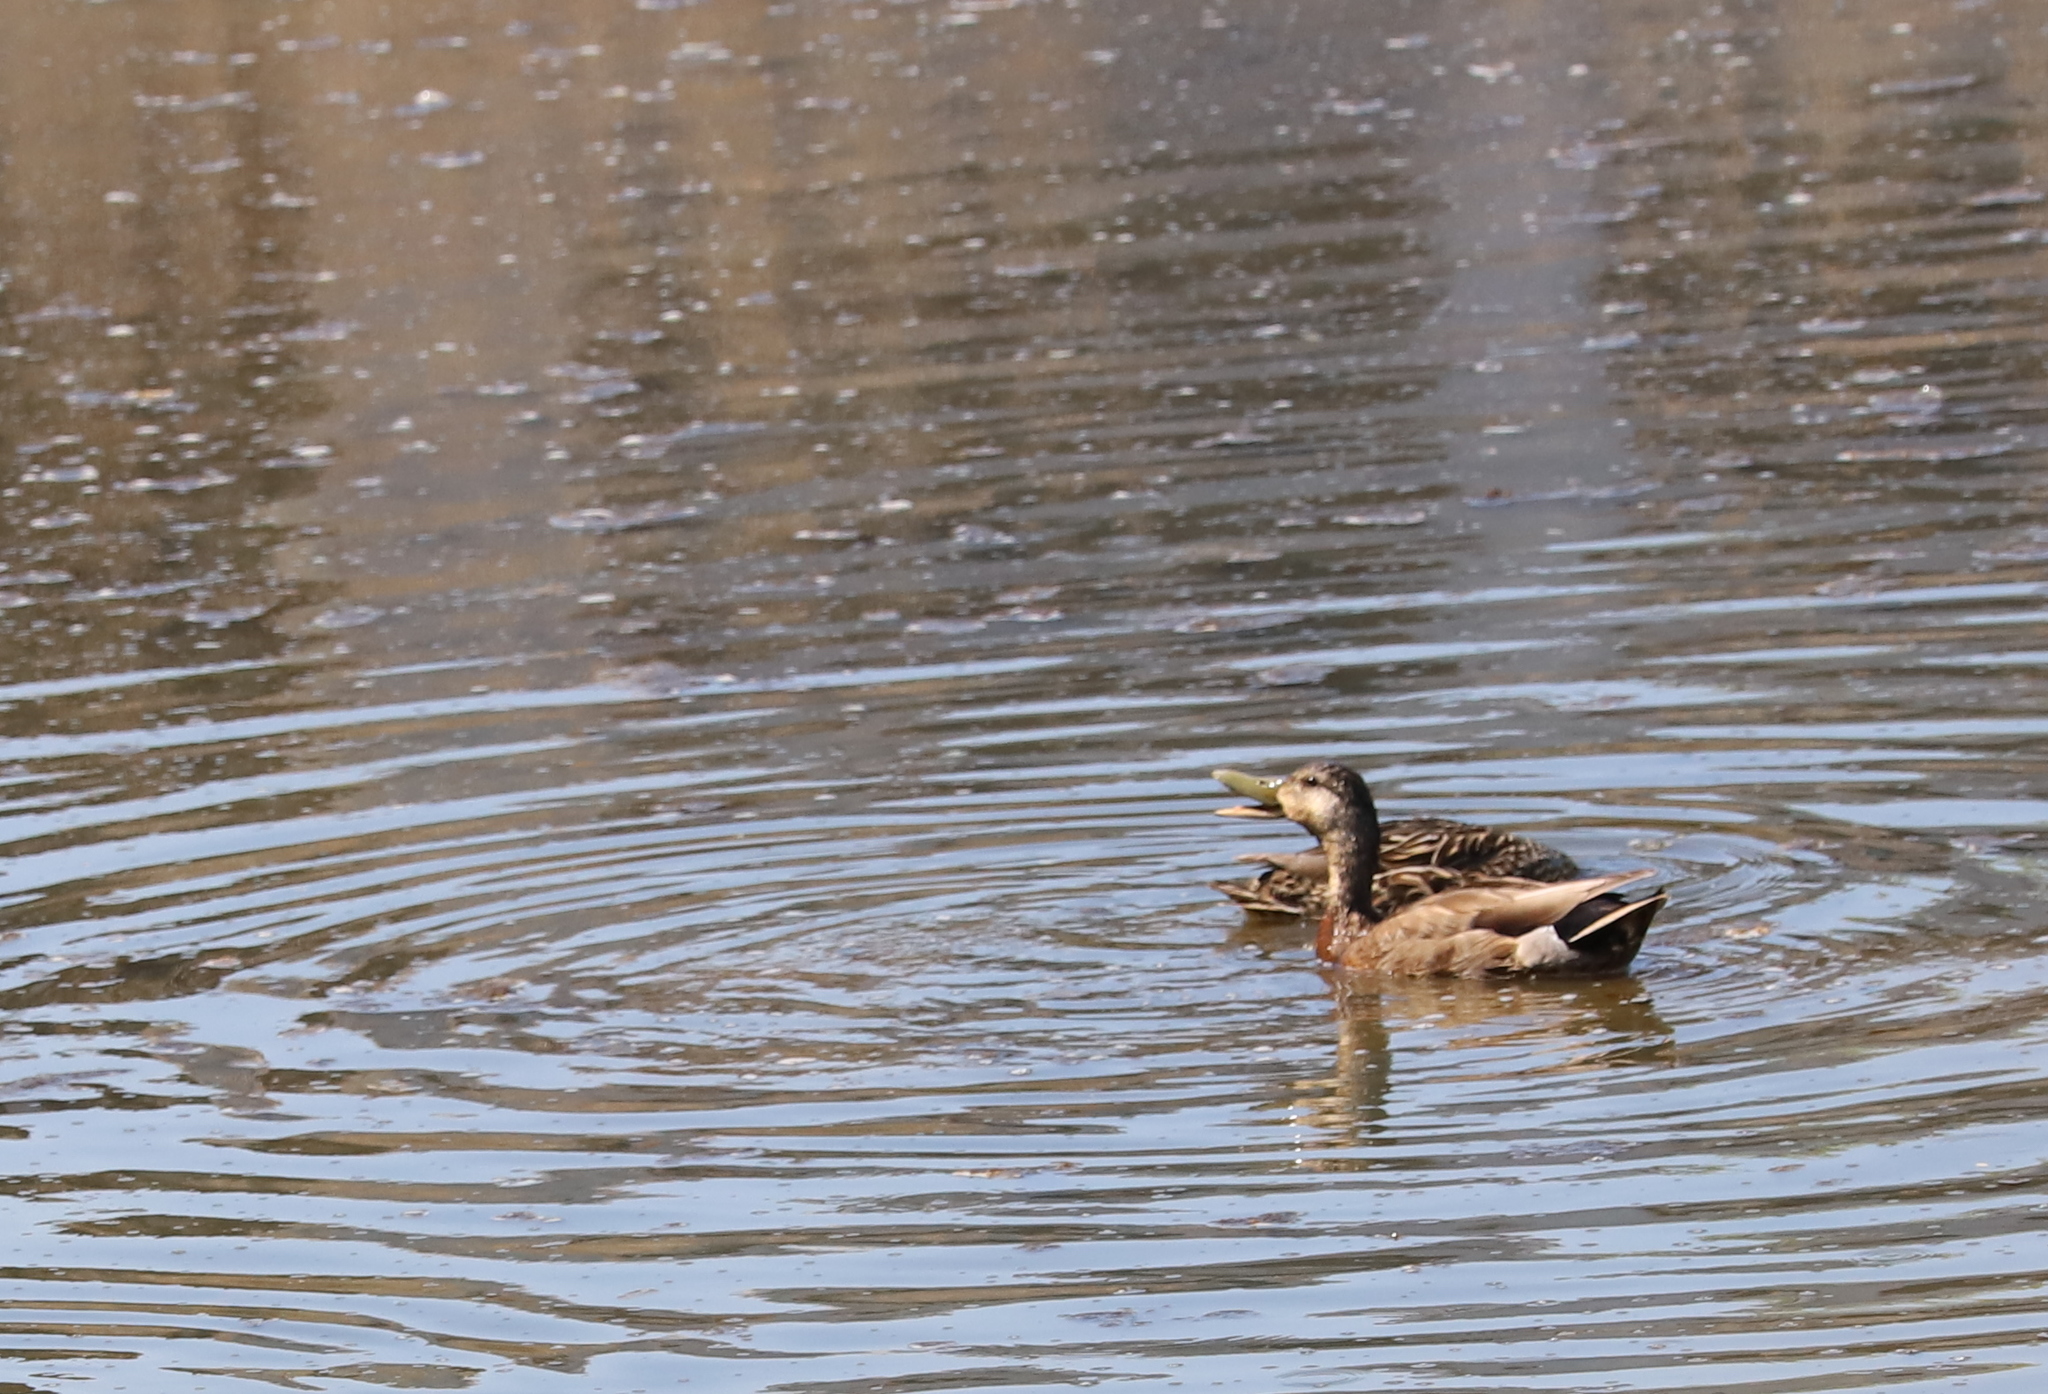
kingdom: Animalia
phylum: Chordata
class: Aves
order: Anseriformes
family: Anatidae
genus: Anas
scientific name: Anas platyrhynchos
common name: Mallard
